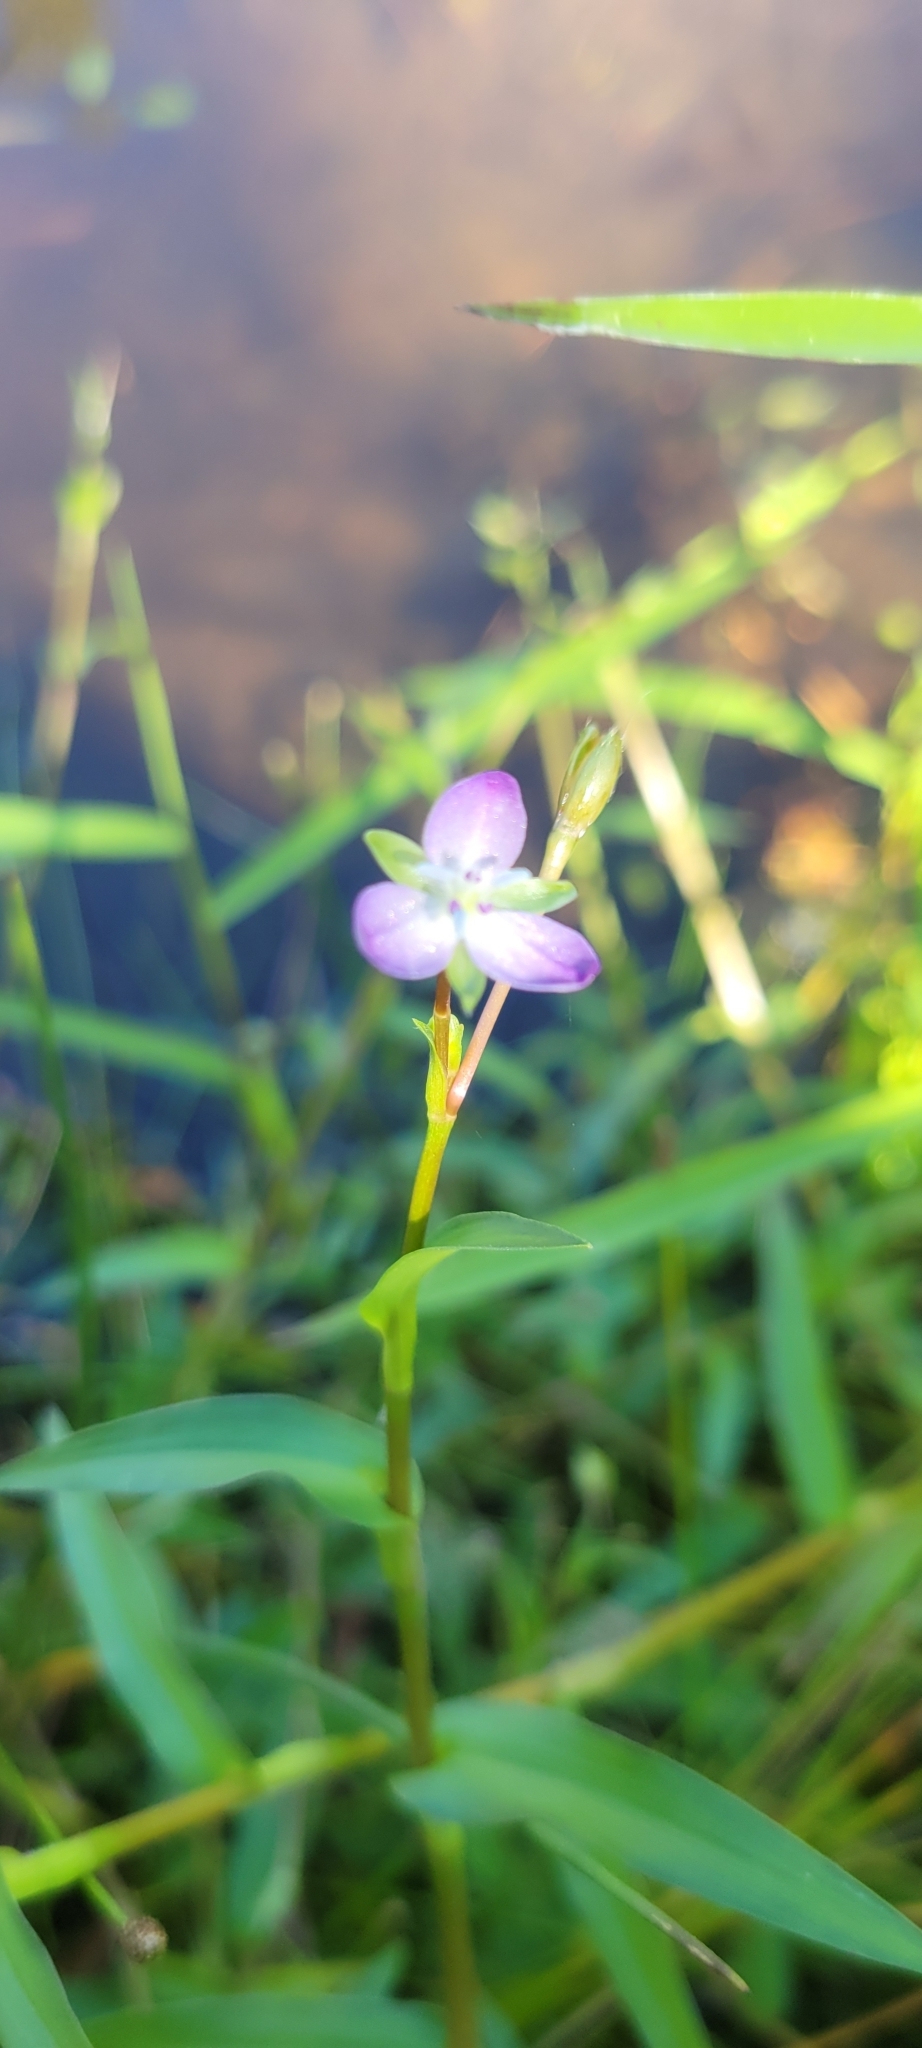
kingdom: Plantae
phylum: Tracheophyta
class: Liliopsida
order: Commelinales
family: Commelinaceae
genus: Murdannia
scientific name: Murdannia keisak
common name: Wartremoving herb
